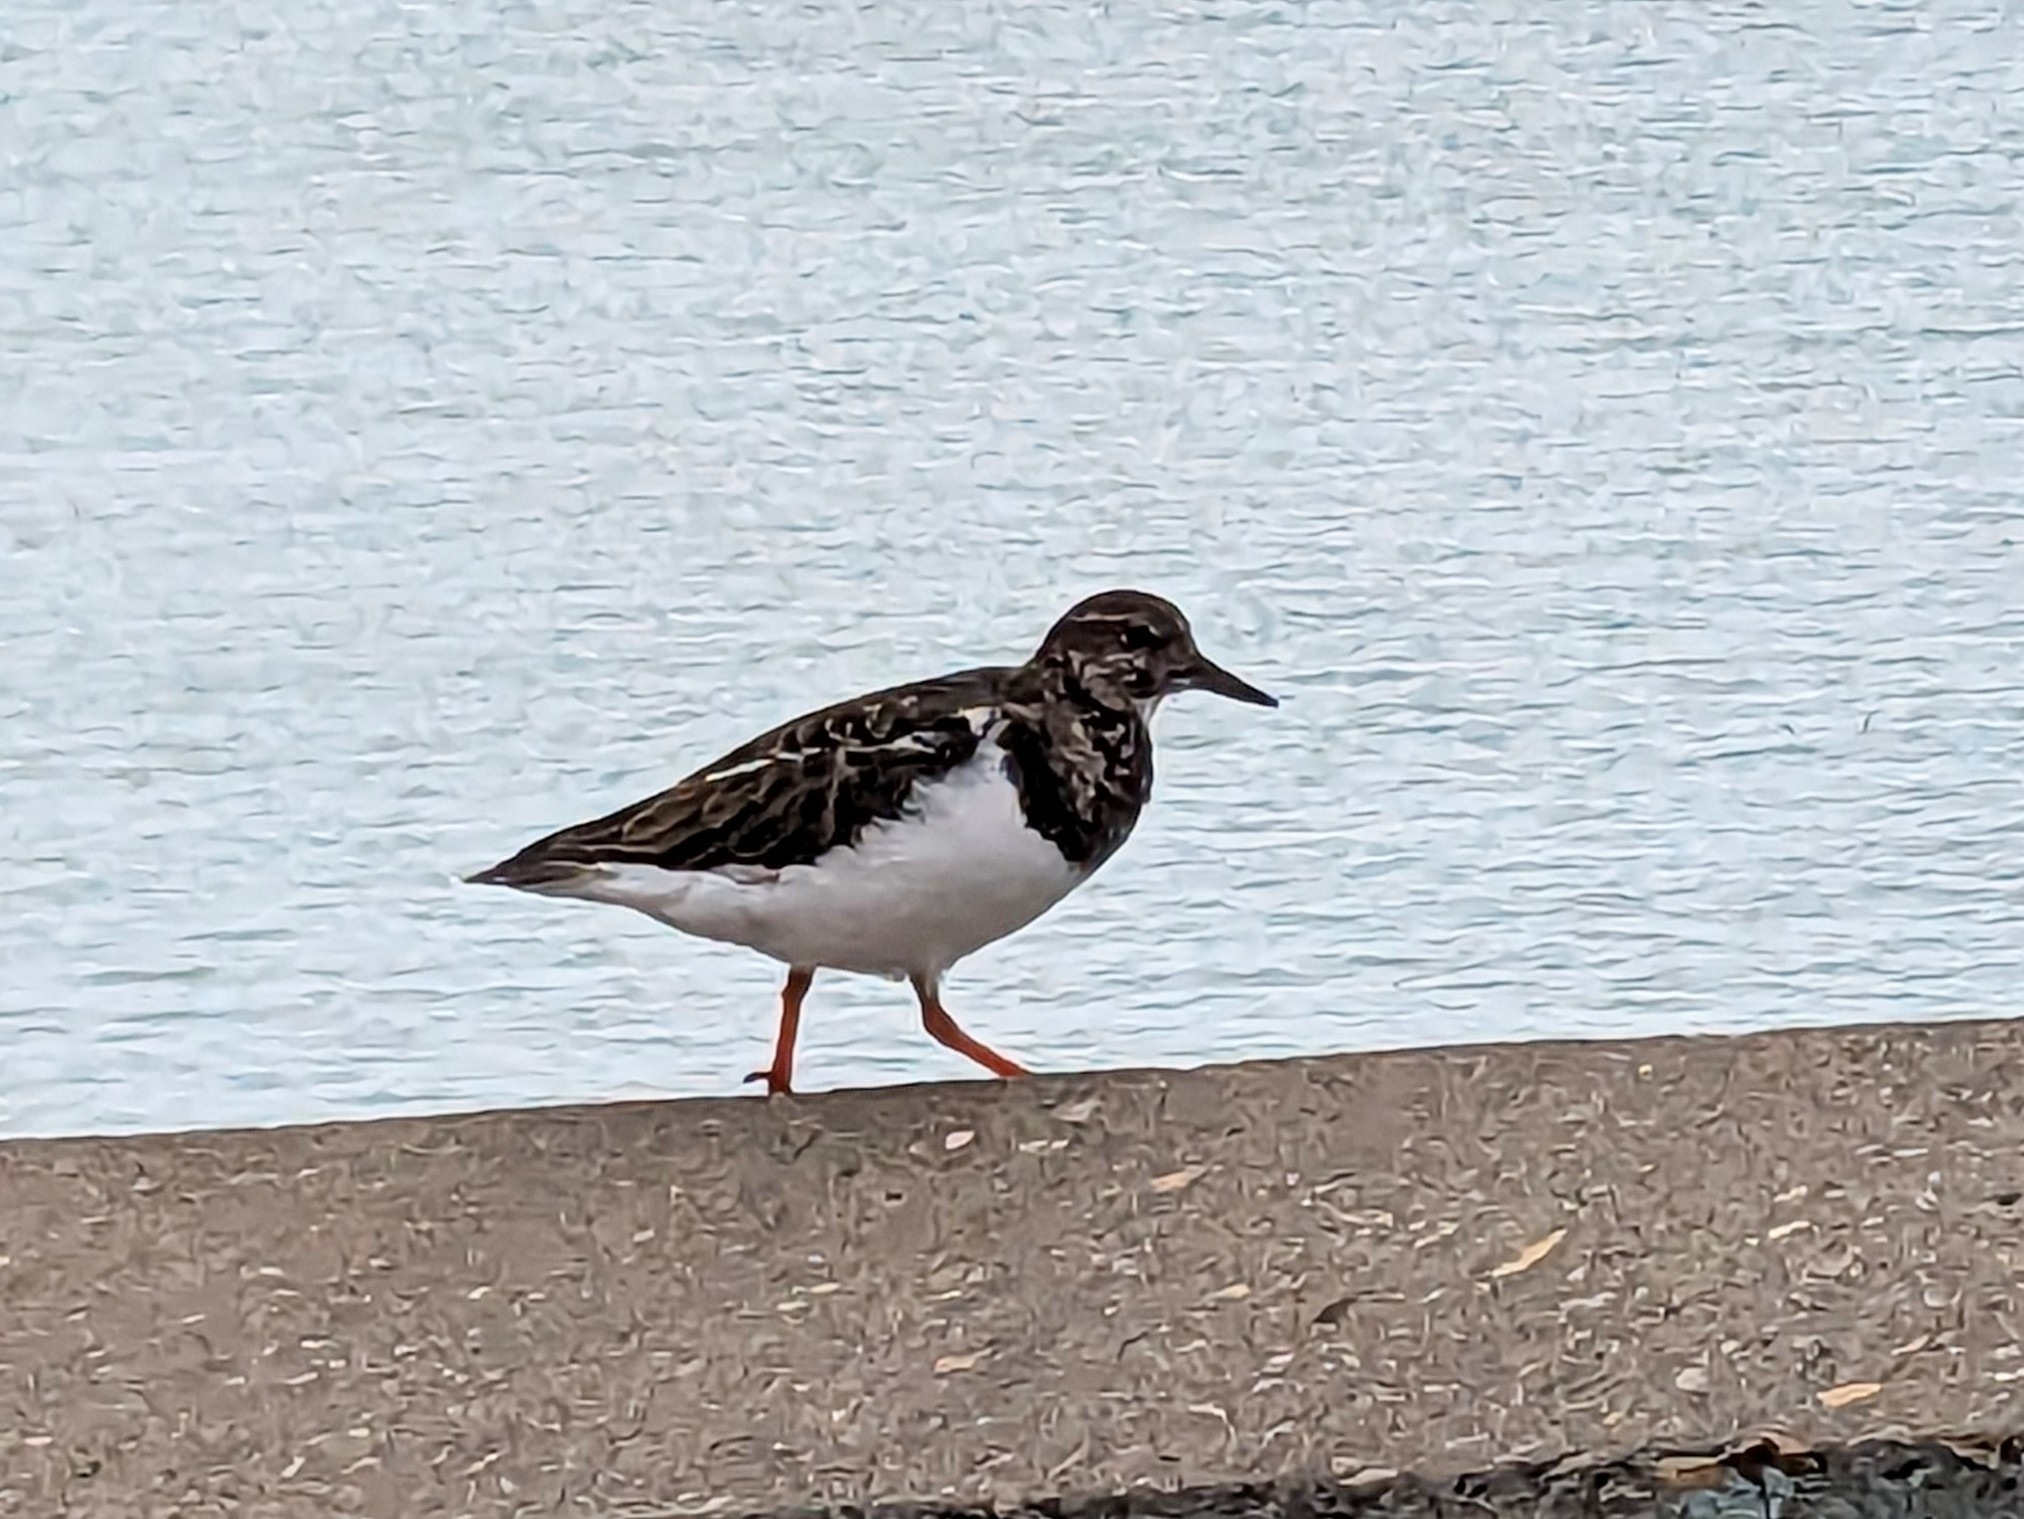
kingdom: Animalia
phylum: Chordata
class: Aves
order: Charadriiformes
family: Scolopacidae
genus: Arenaria
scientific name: Arenaria interpres
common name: Ruddy turnstone
